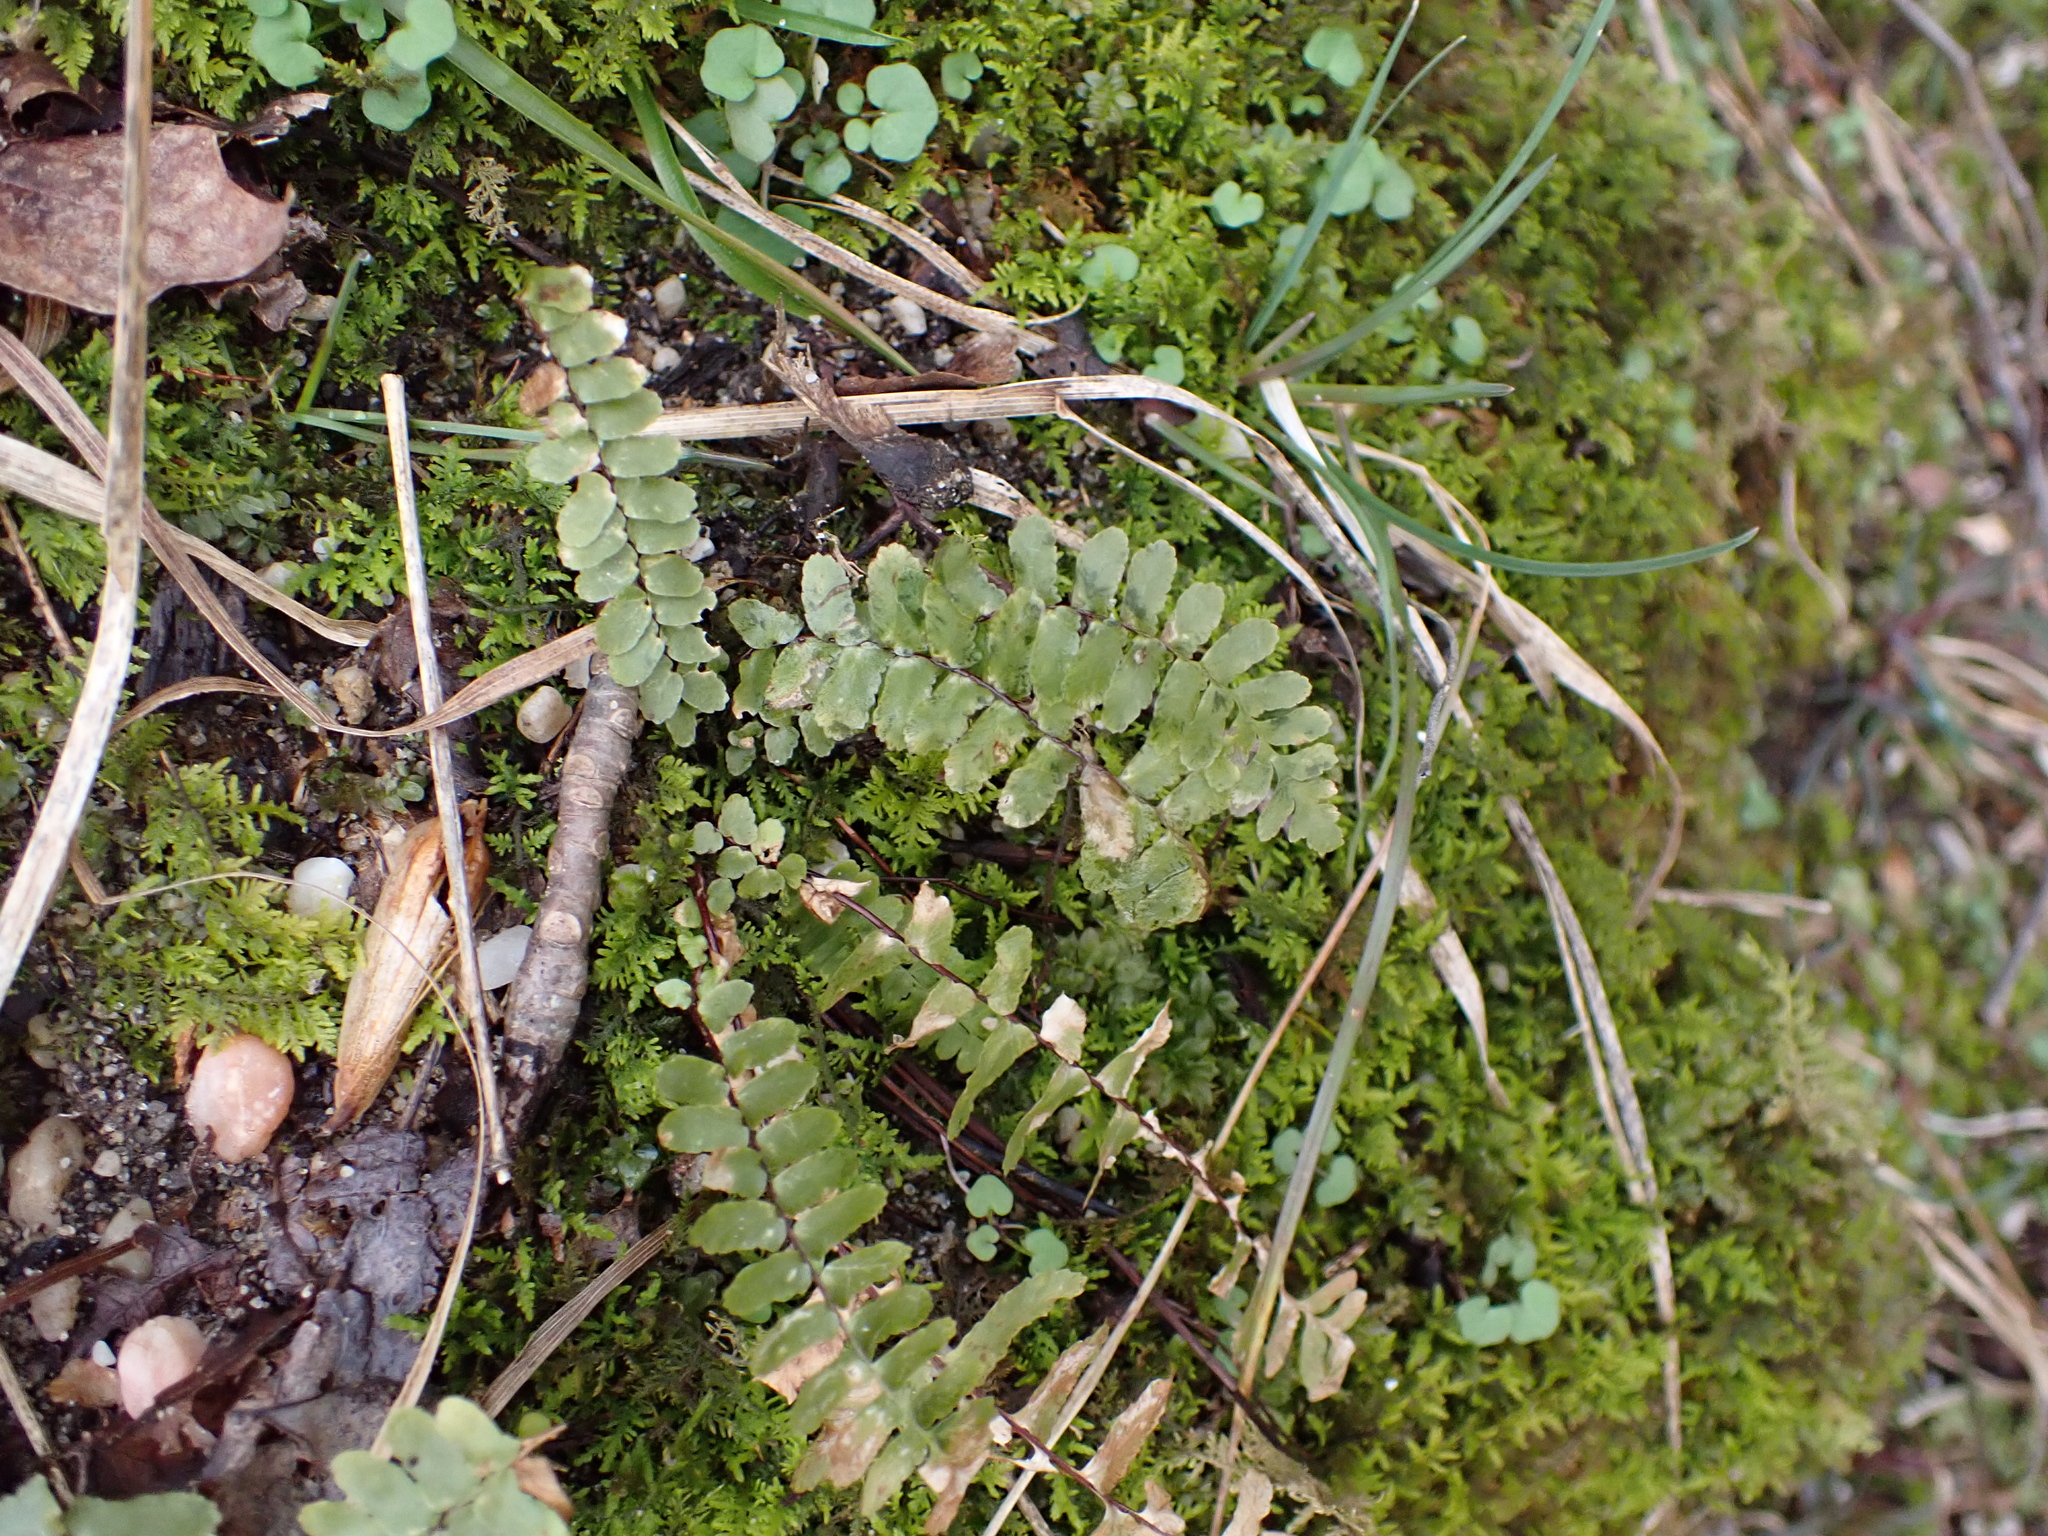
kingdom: Plantae
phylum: Tracheophyta
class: Polypodiopsida
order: Polypodiales
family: Aspleniaceae
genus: Asplenium
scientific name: Asplenium platyneuron
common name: Ebony spleenwort
